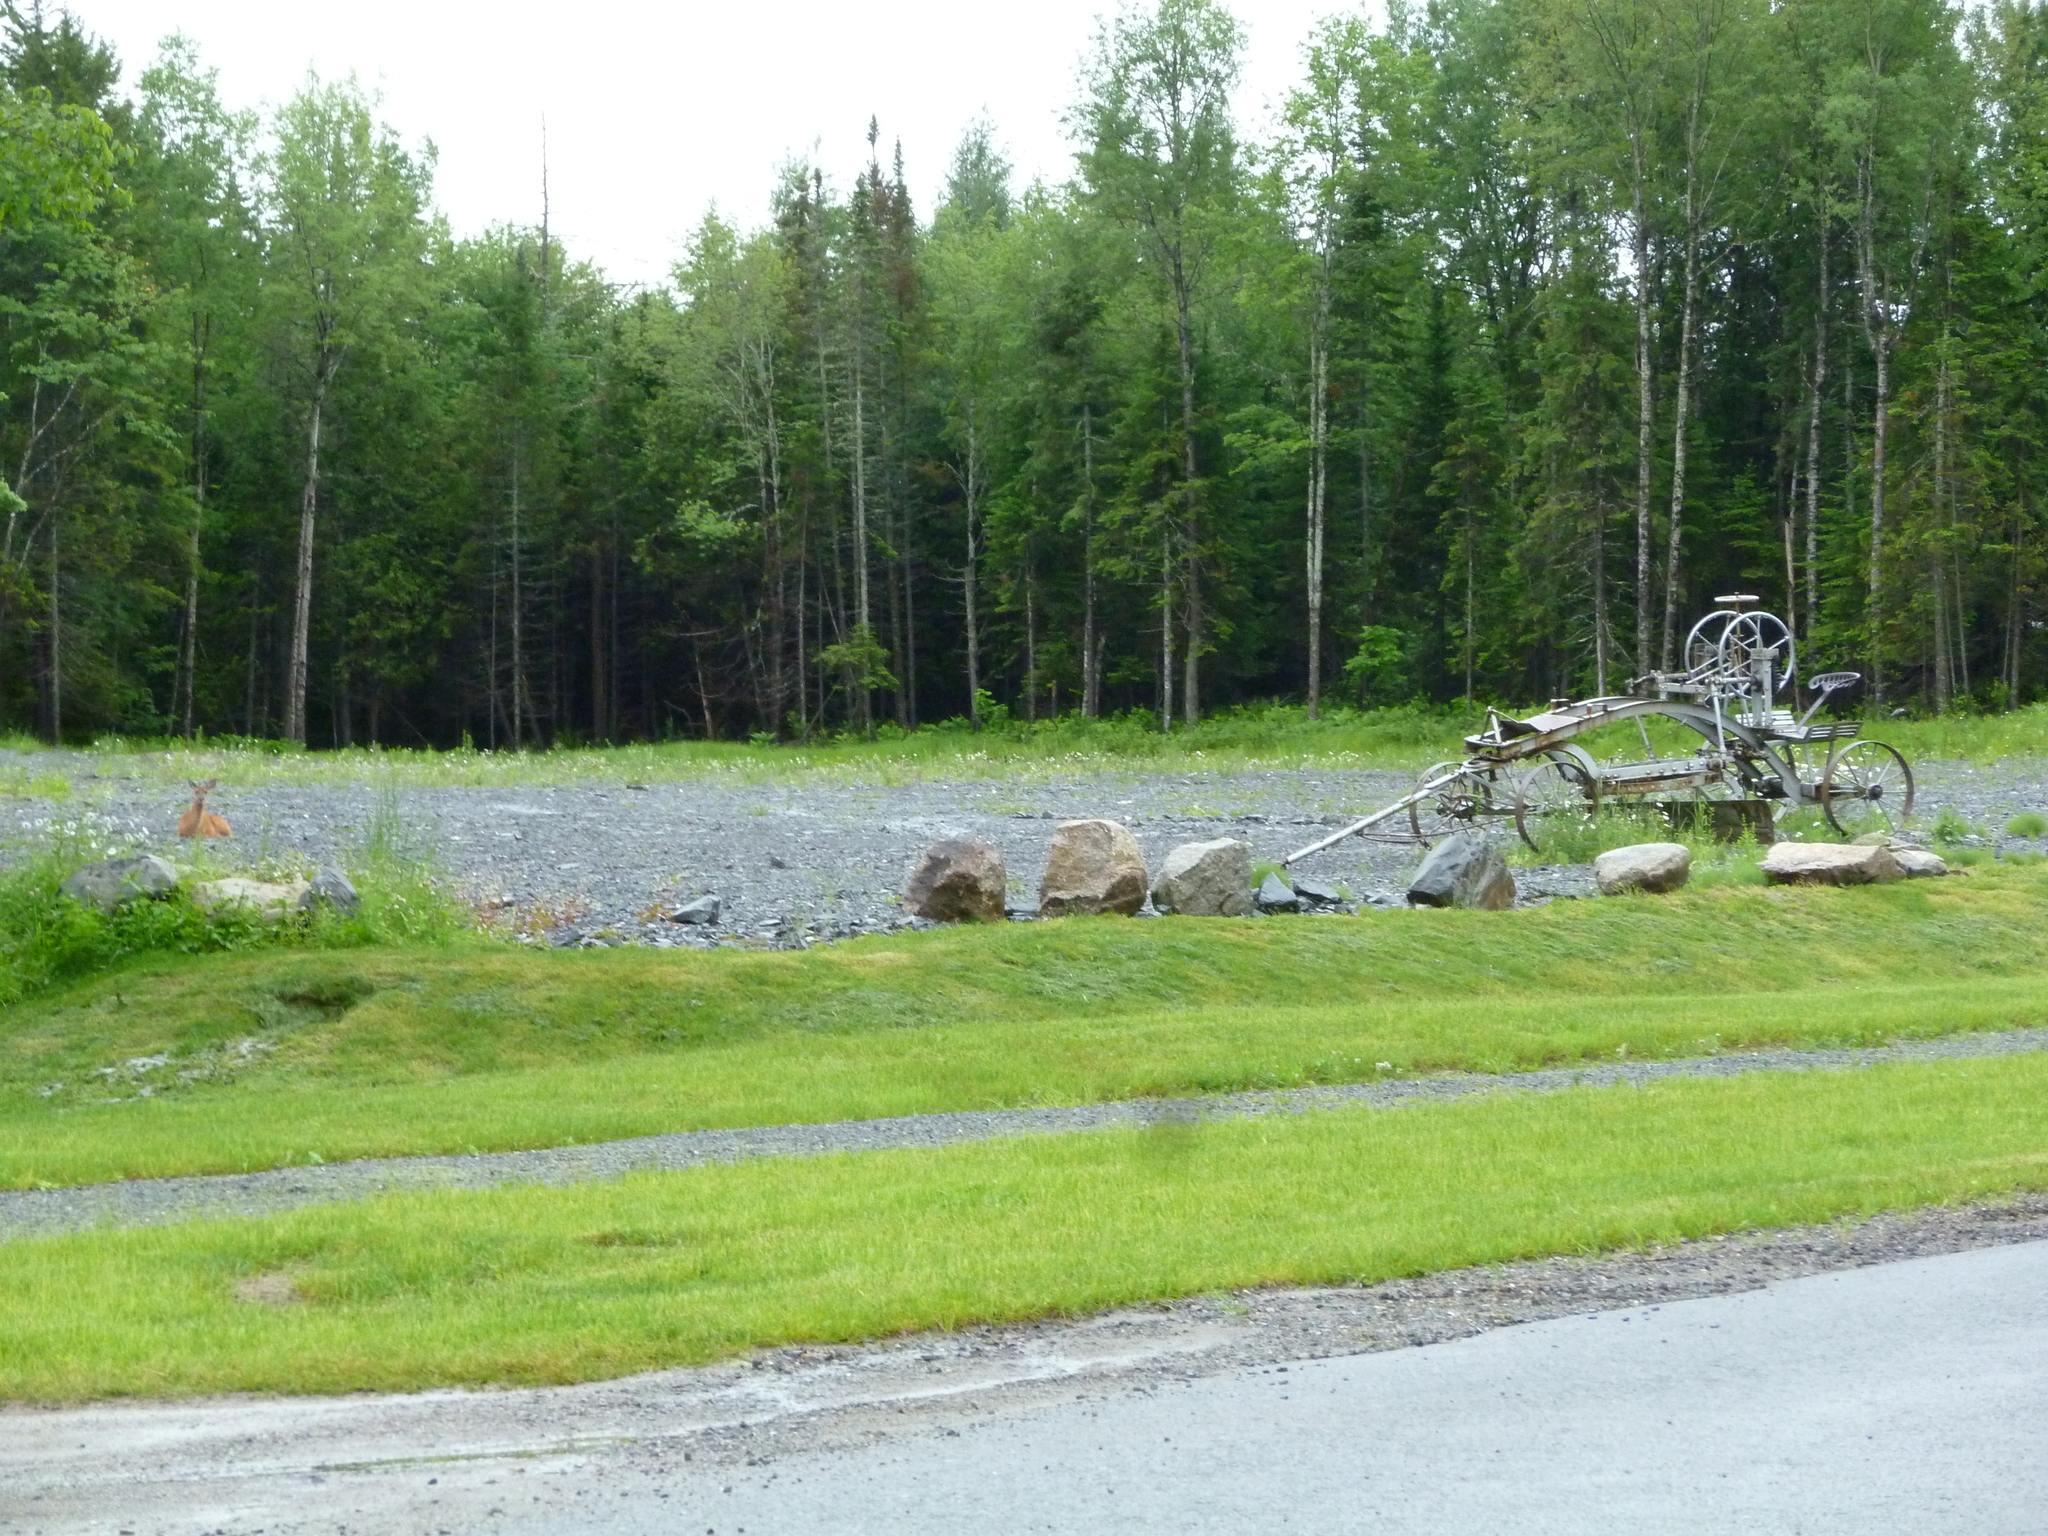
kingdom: Animalia
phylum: Chordata
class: Mammalia
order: Artiodactyla
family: Cervidae
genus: Odocoileus
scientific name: Odocoileus virginianus
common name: White-tailed deer
